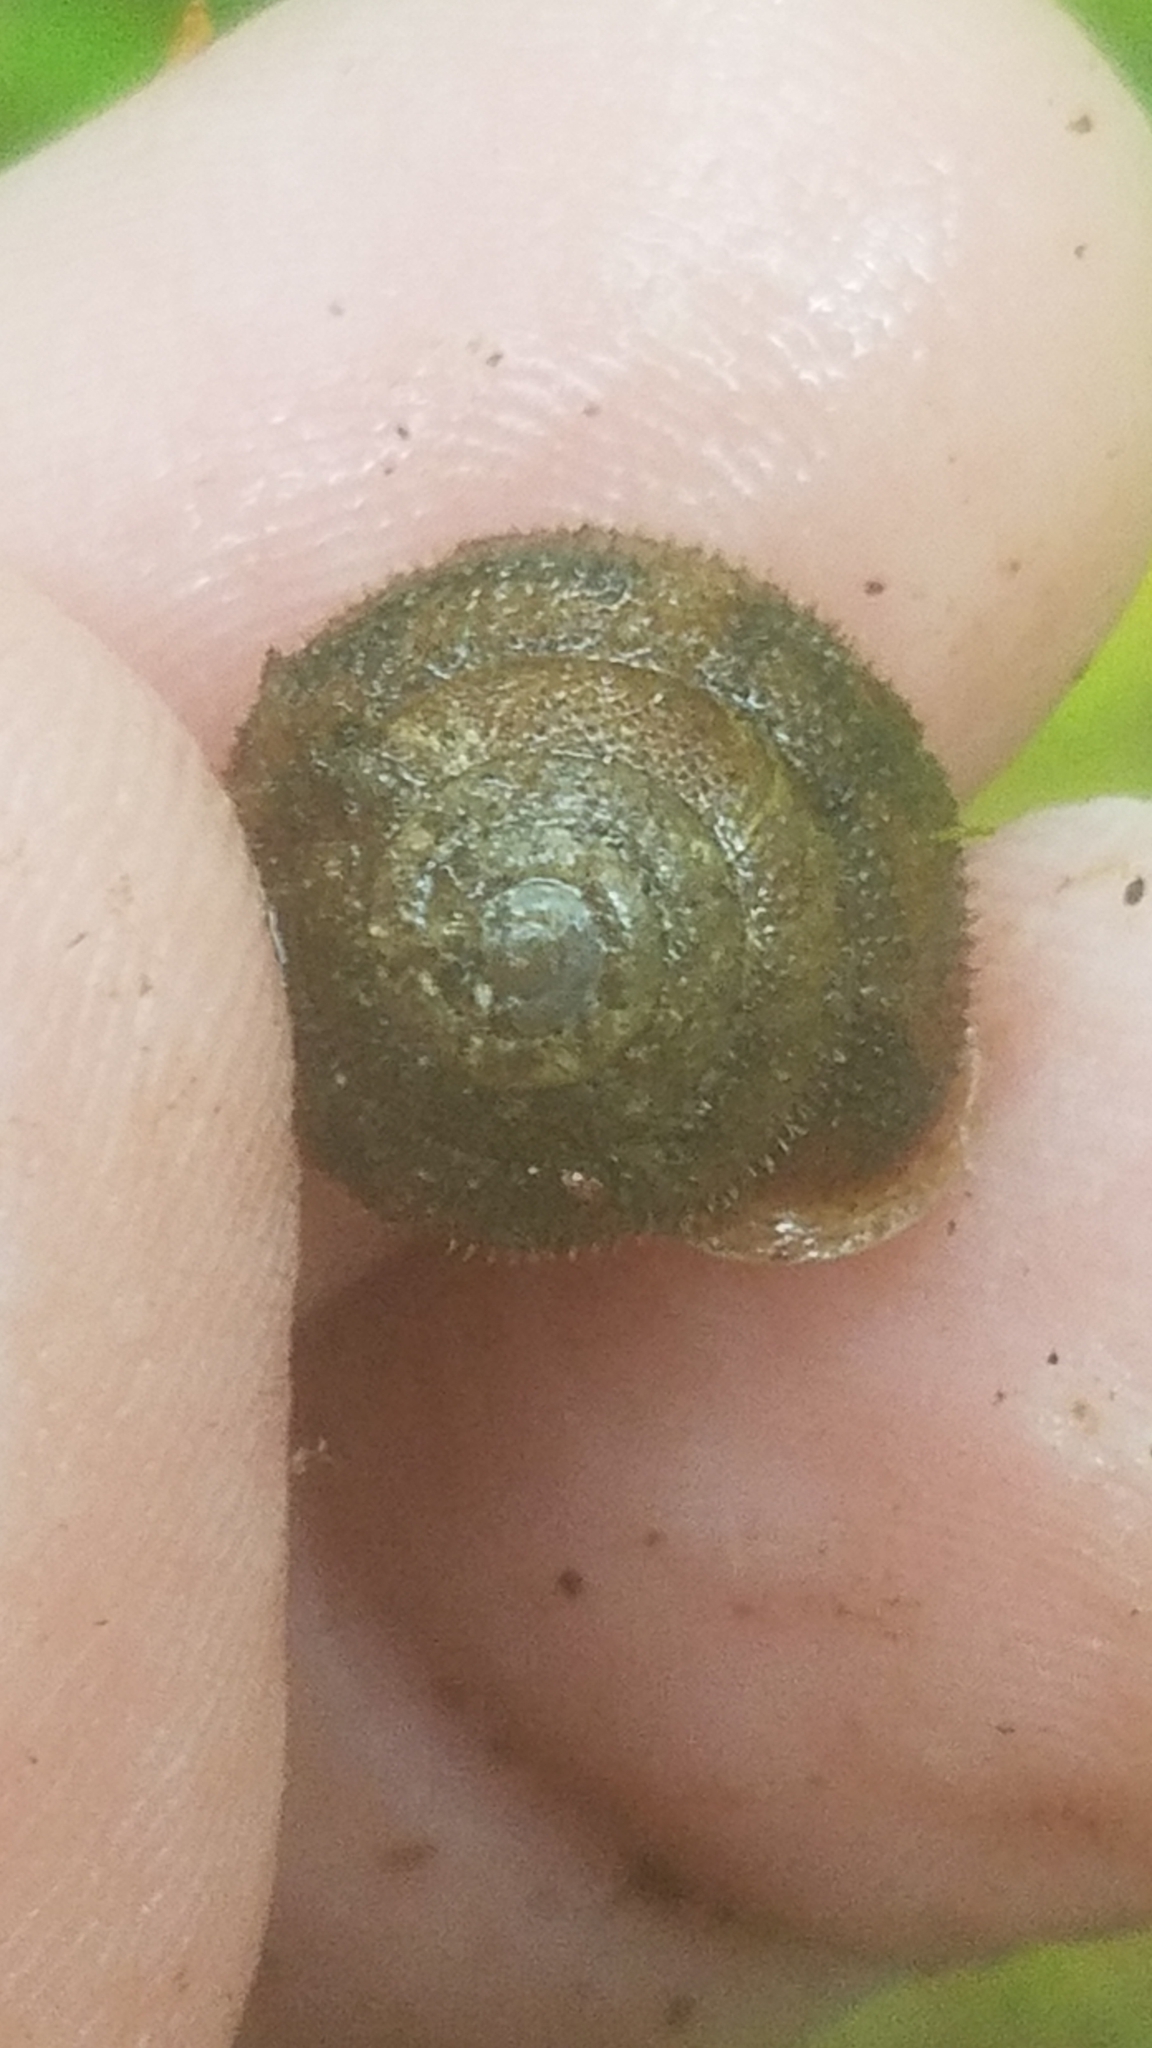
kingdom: Animalia
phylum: Mollusca
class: Gastropoda
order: Stylommatophora
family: Polygyridae
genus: Vespericola
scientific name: Vespericola columbianus
